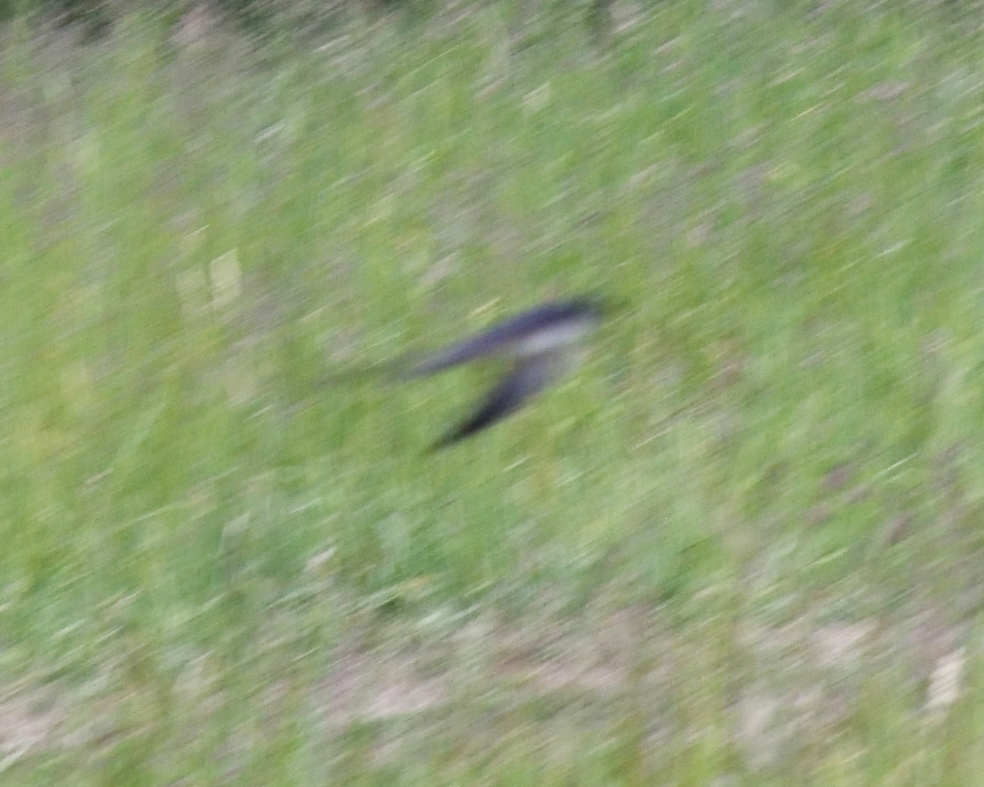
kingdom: Animalia
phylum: Chordata
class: Aves
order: Passeriformes
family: Hirundinidae
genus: Hirundo
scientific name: Hirundo rustica
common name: Barn swallow
